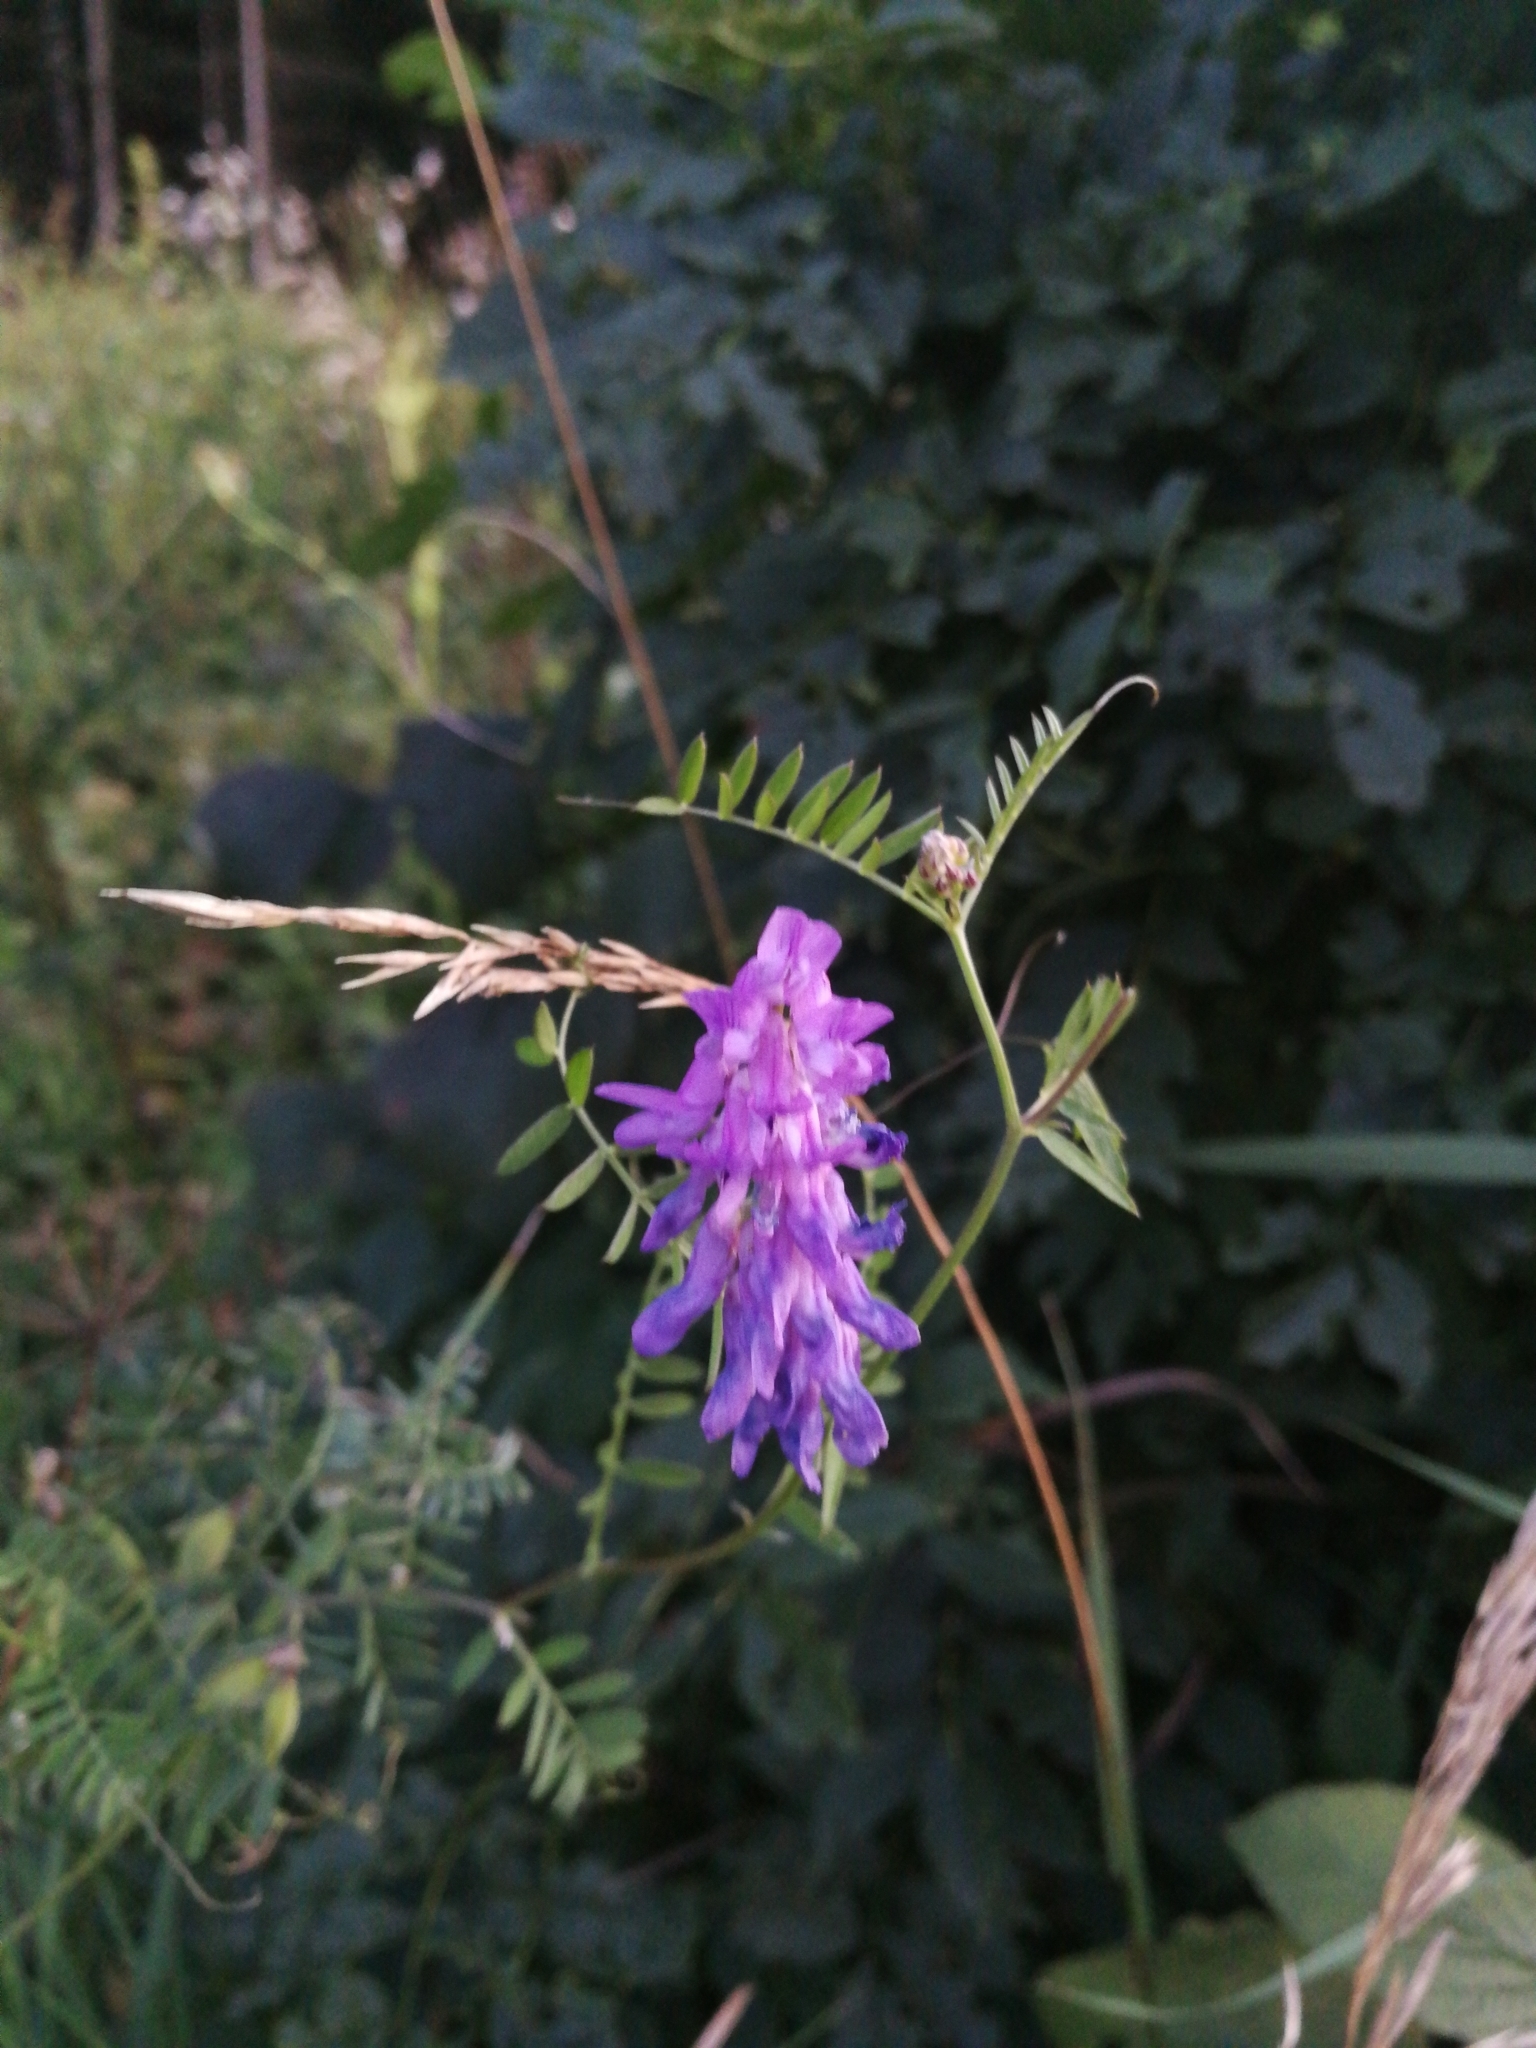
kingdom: Plantae
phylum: Tracheophyta
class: Magnoliopsida
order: Fabales
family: Fabaceae
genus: Vicia
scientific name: Vicia cracca
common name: Bird vetch
